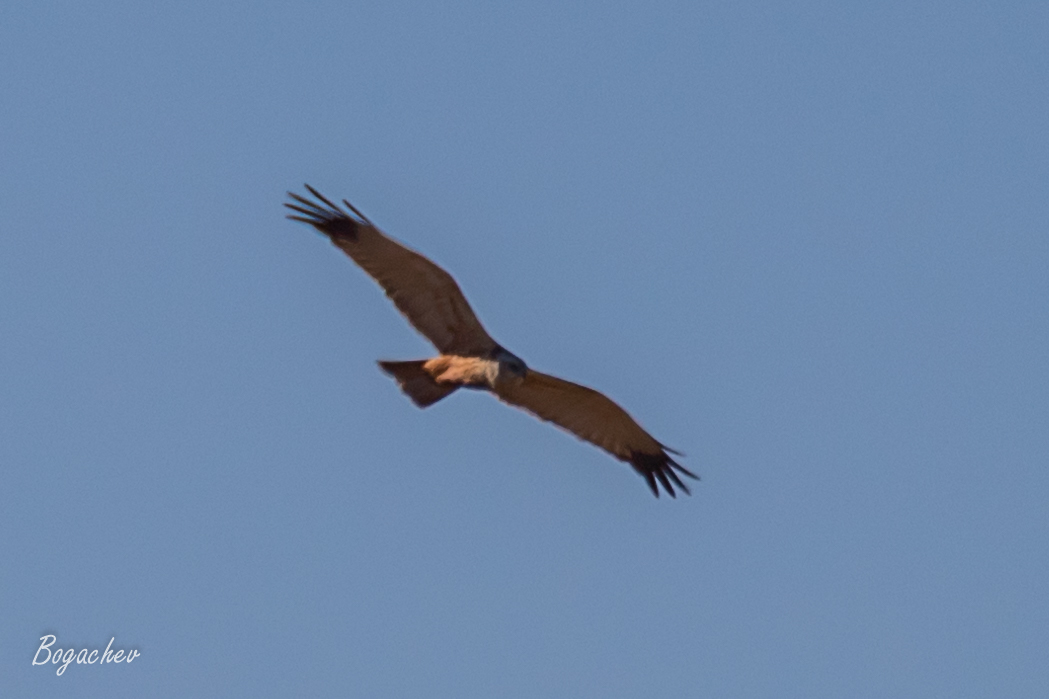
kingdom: Animalia
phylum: Chordata
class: Aves
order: Accipitriformes
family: Accipitridae
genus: Circus
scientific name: Circus aeruginosus
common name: Western marsh harrier
